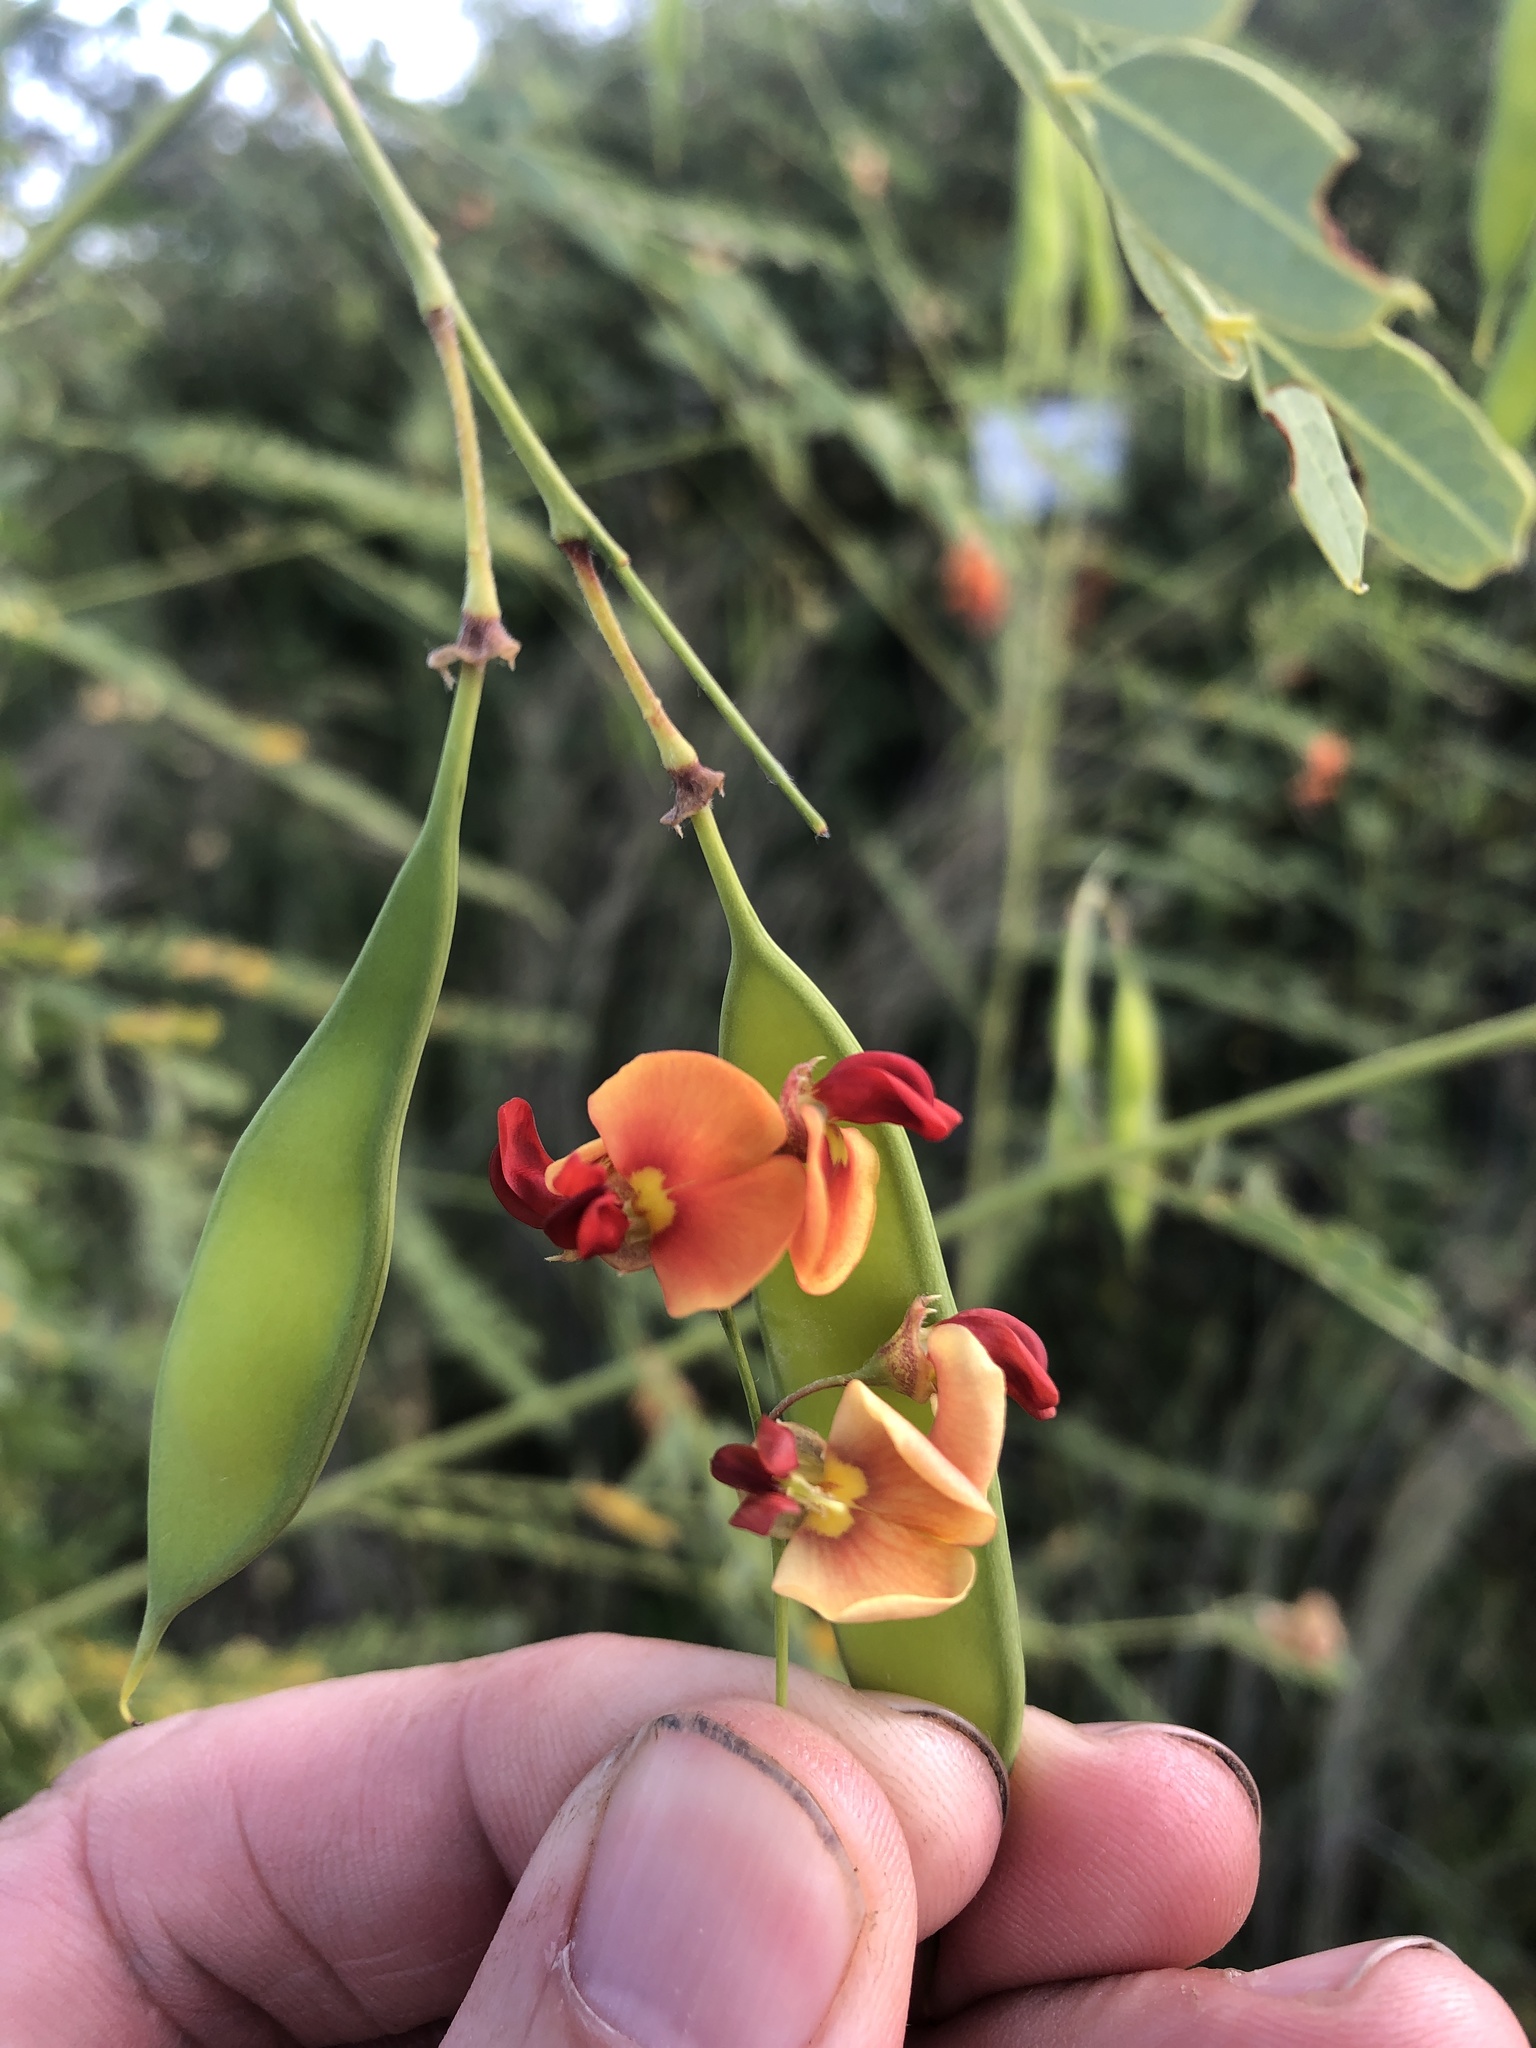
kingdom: Plantae
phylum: Tracheophyta
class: Magnoliopsida
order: Fabales
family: Fabaceae
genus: Sesbania
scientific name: Sesbania vesicaria
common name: Bagpod
